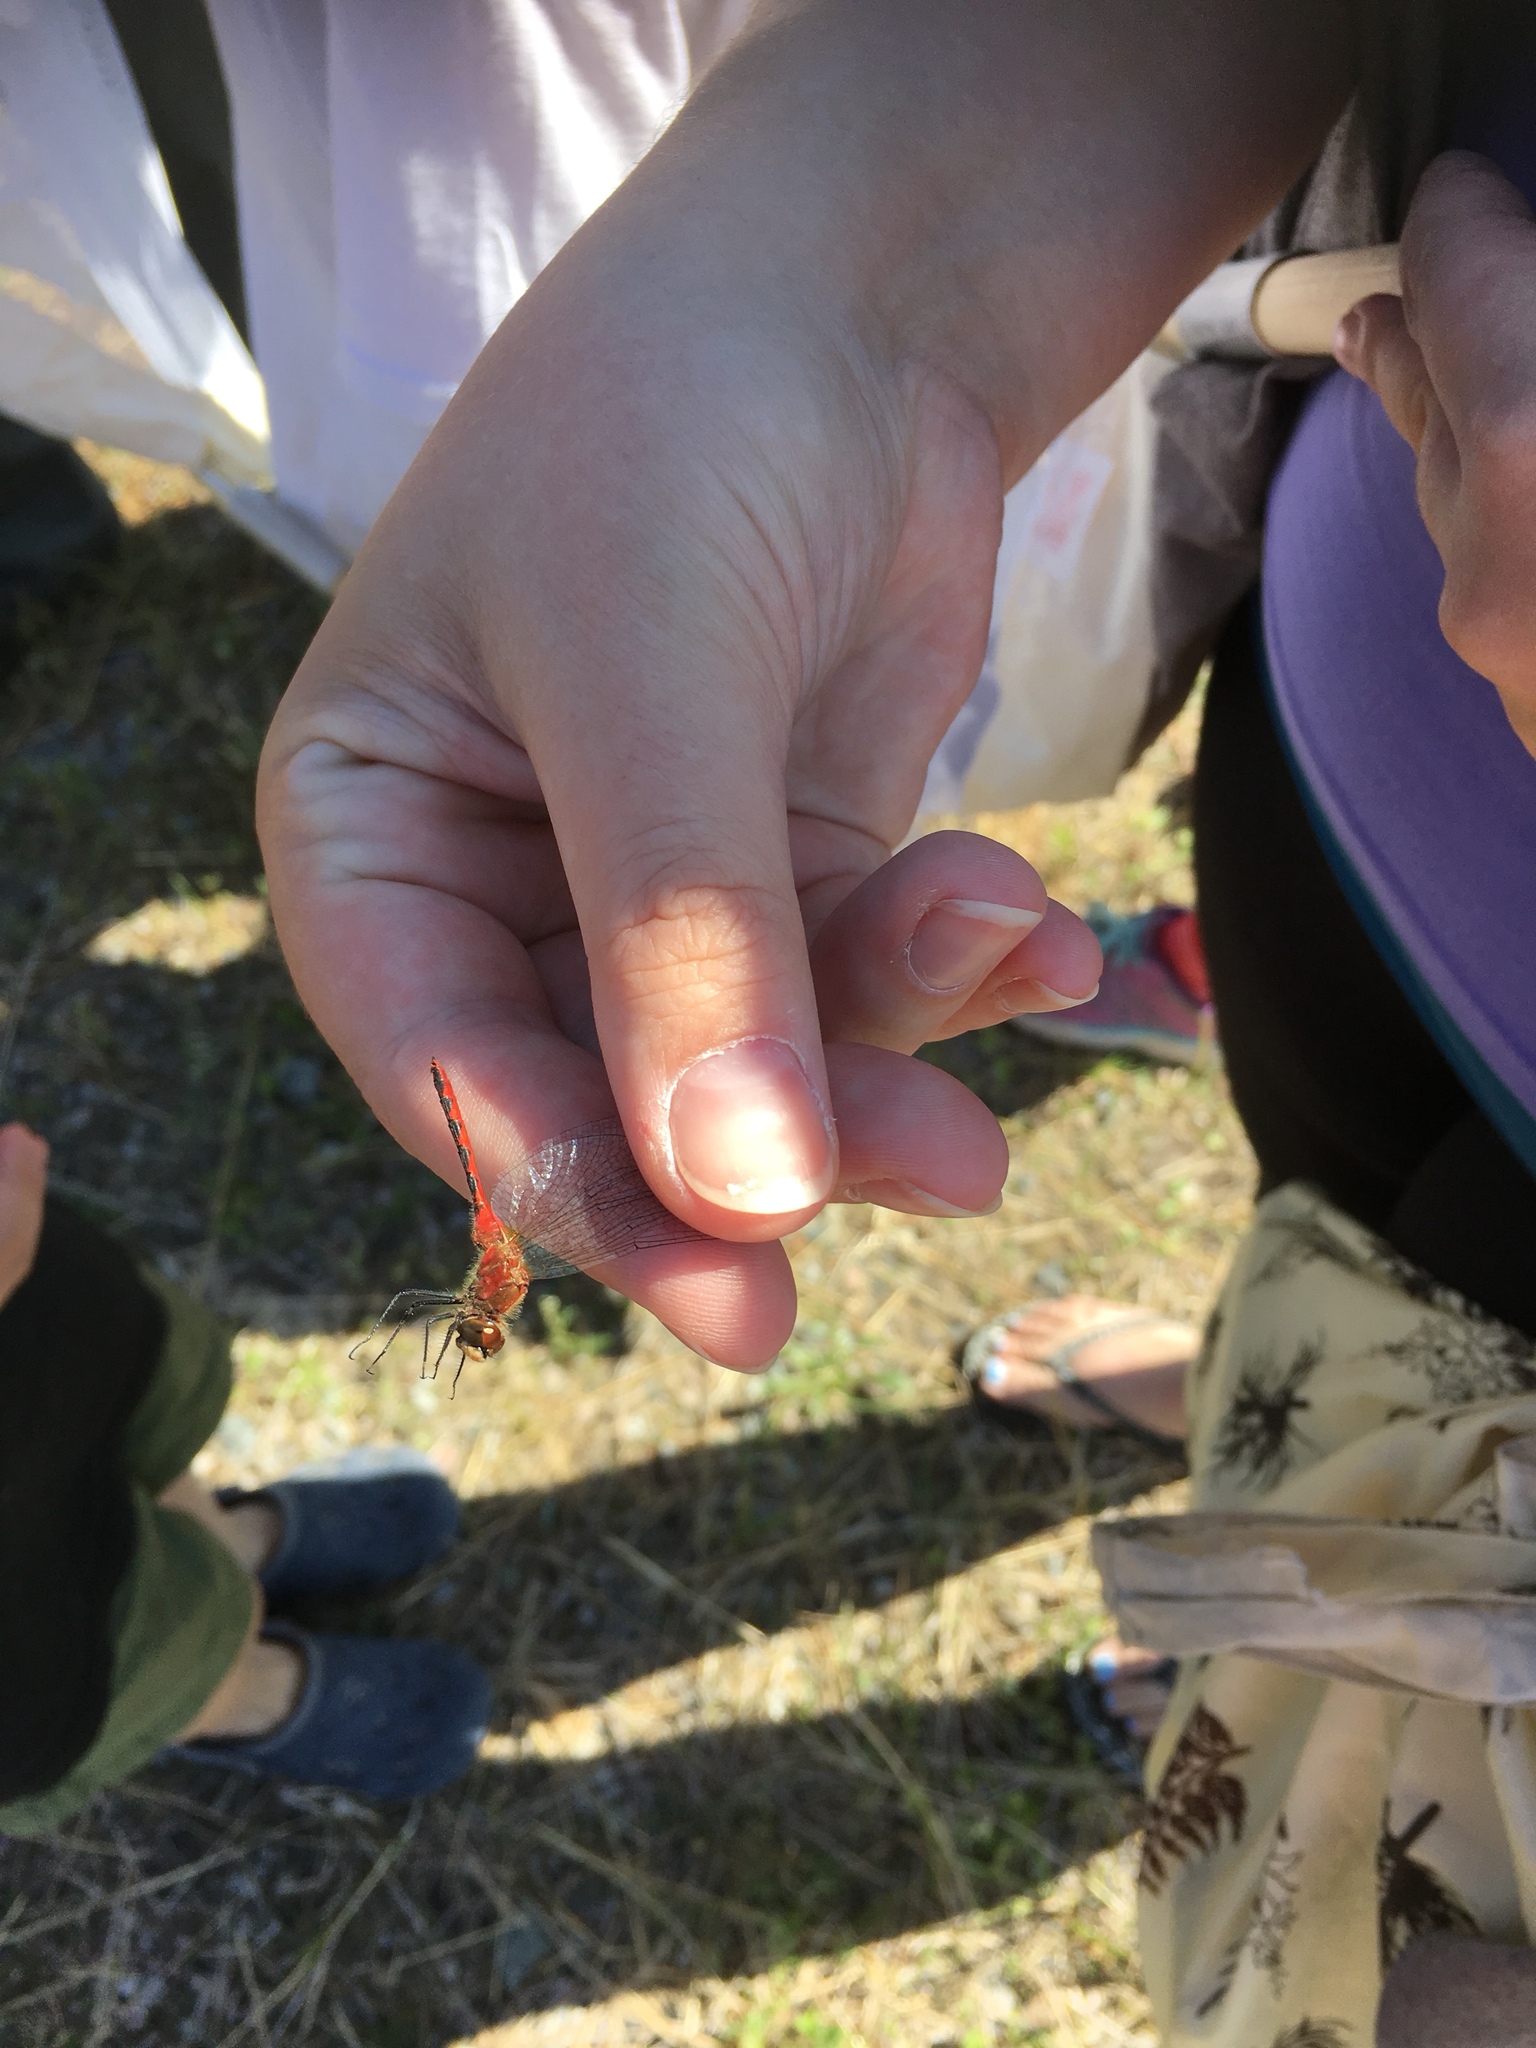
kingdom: Animalia
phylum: Arthropoda
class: Insecta
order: Odonata
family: Libellulidae
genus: Sympetrum
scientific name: Sympetrum obtrusum
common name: White-faced meadowhawk
